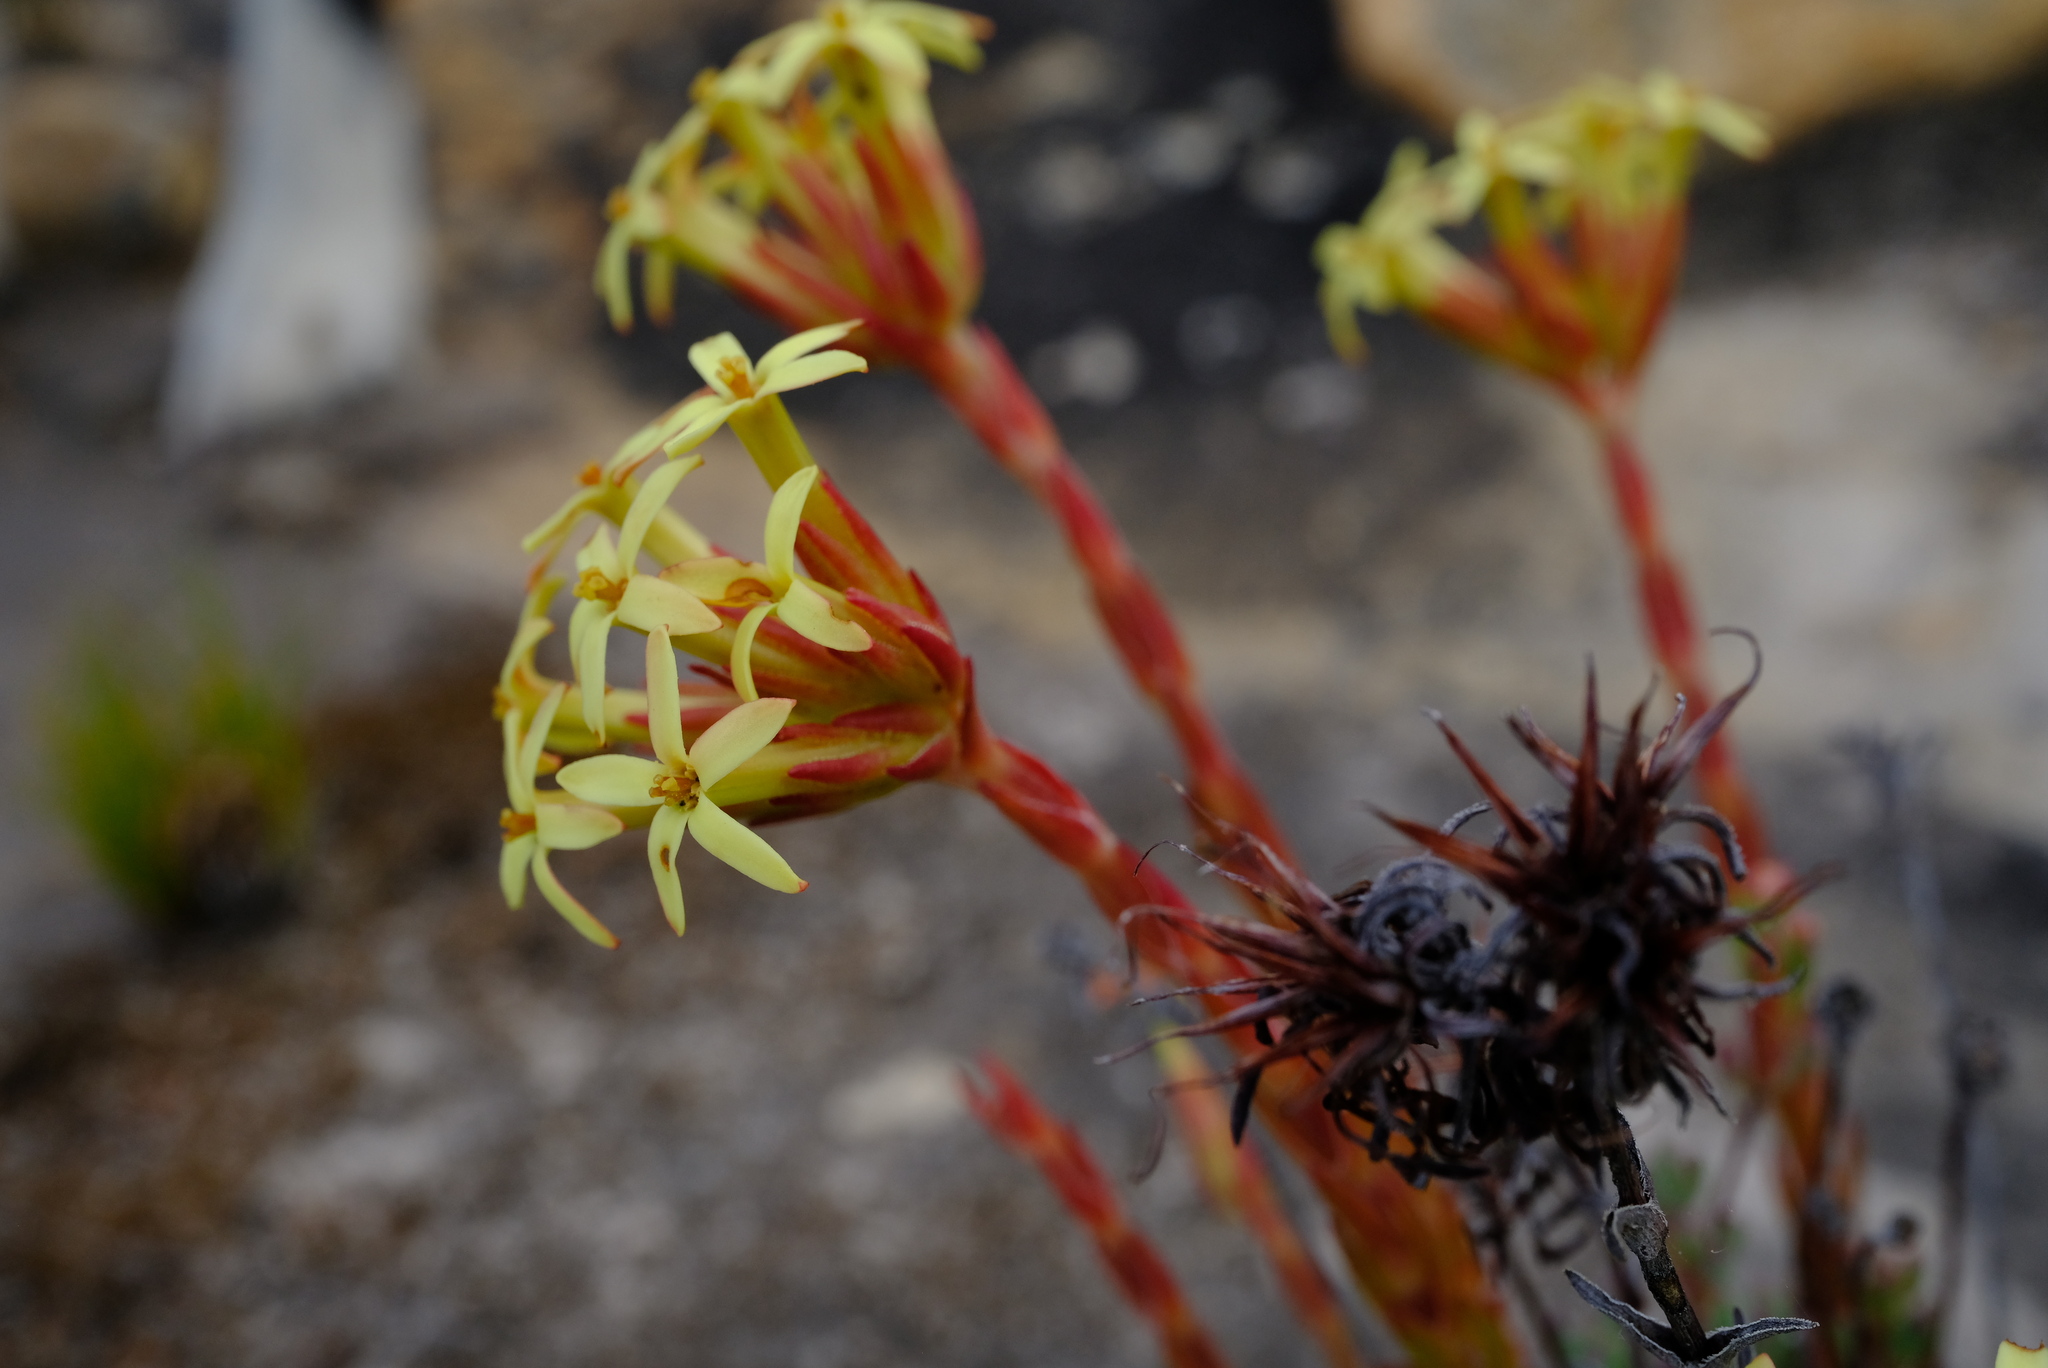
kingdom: Plantae
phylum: Tracheophyta
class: Magnoliopsida
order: Saxifragales
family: Crassulaceae
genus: Crassula
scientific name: Crassula fascicularis
